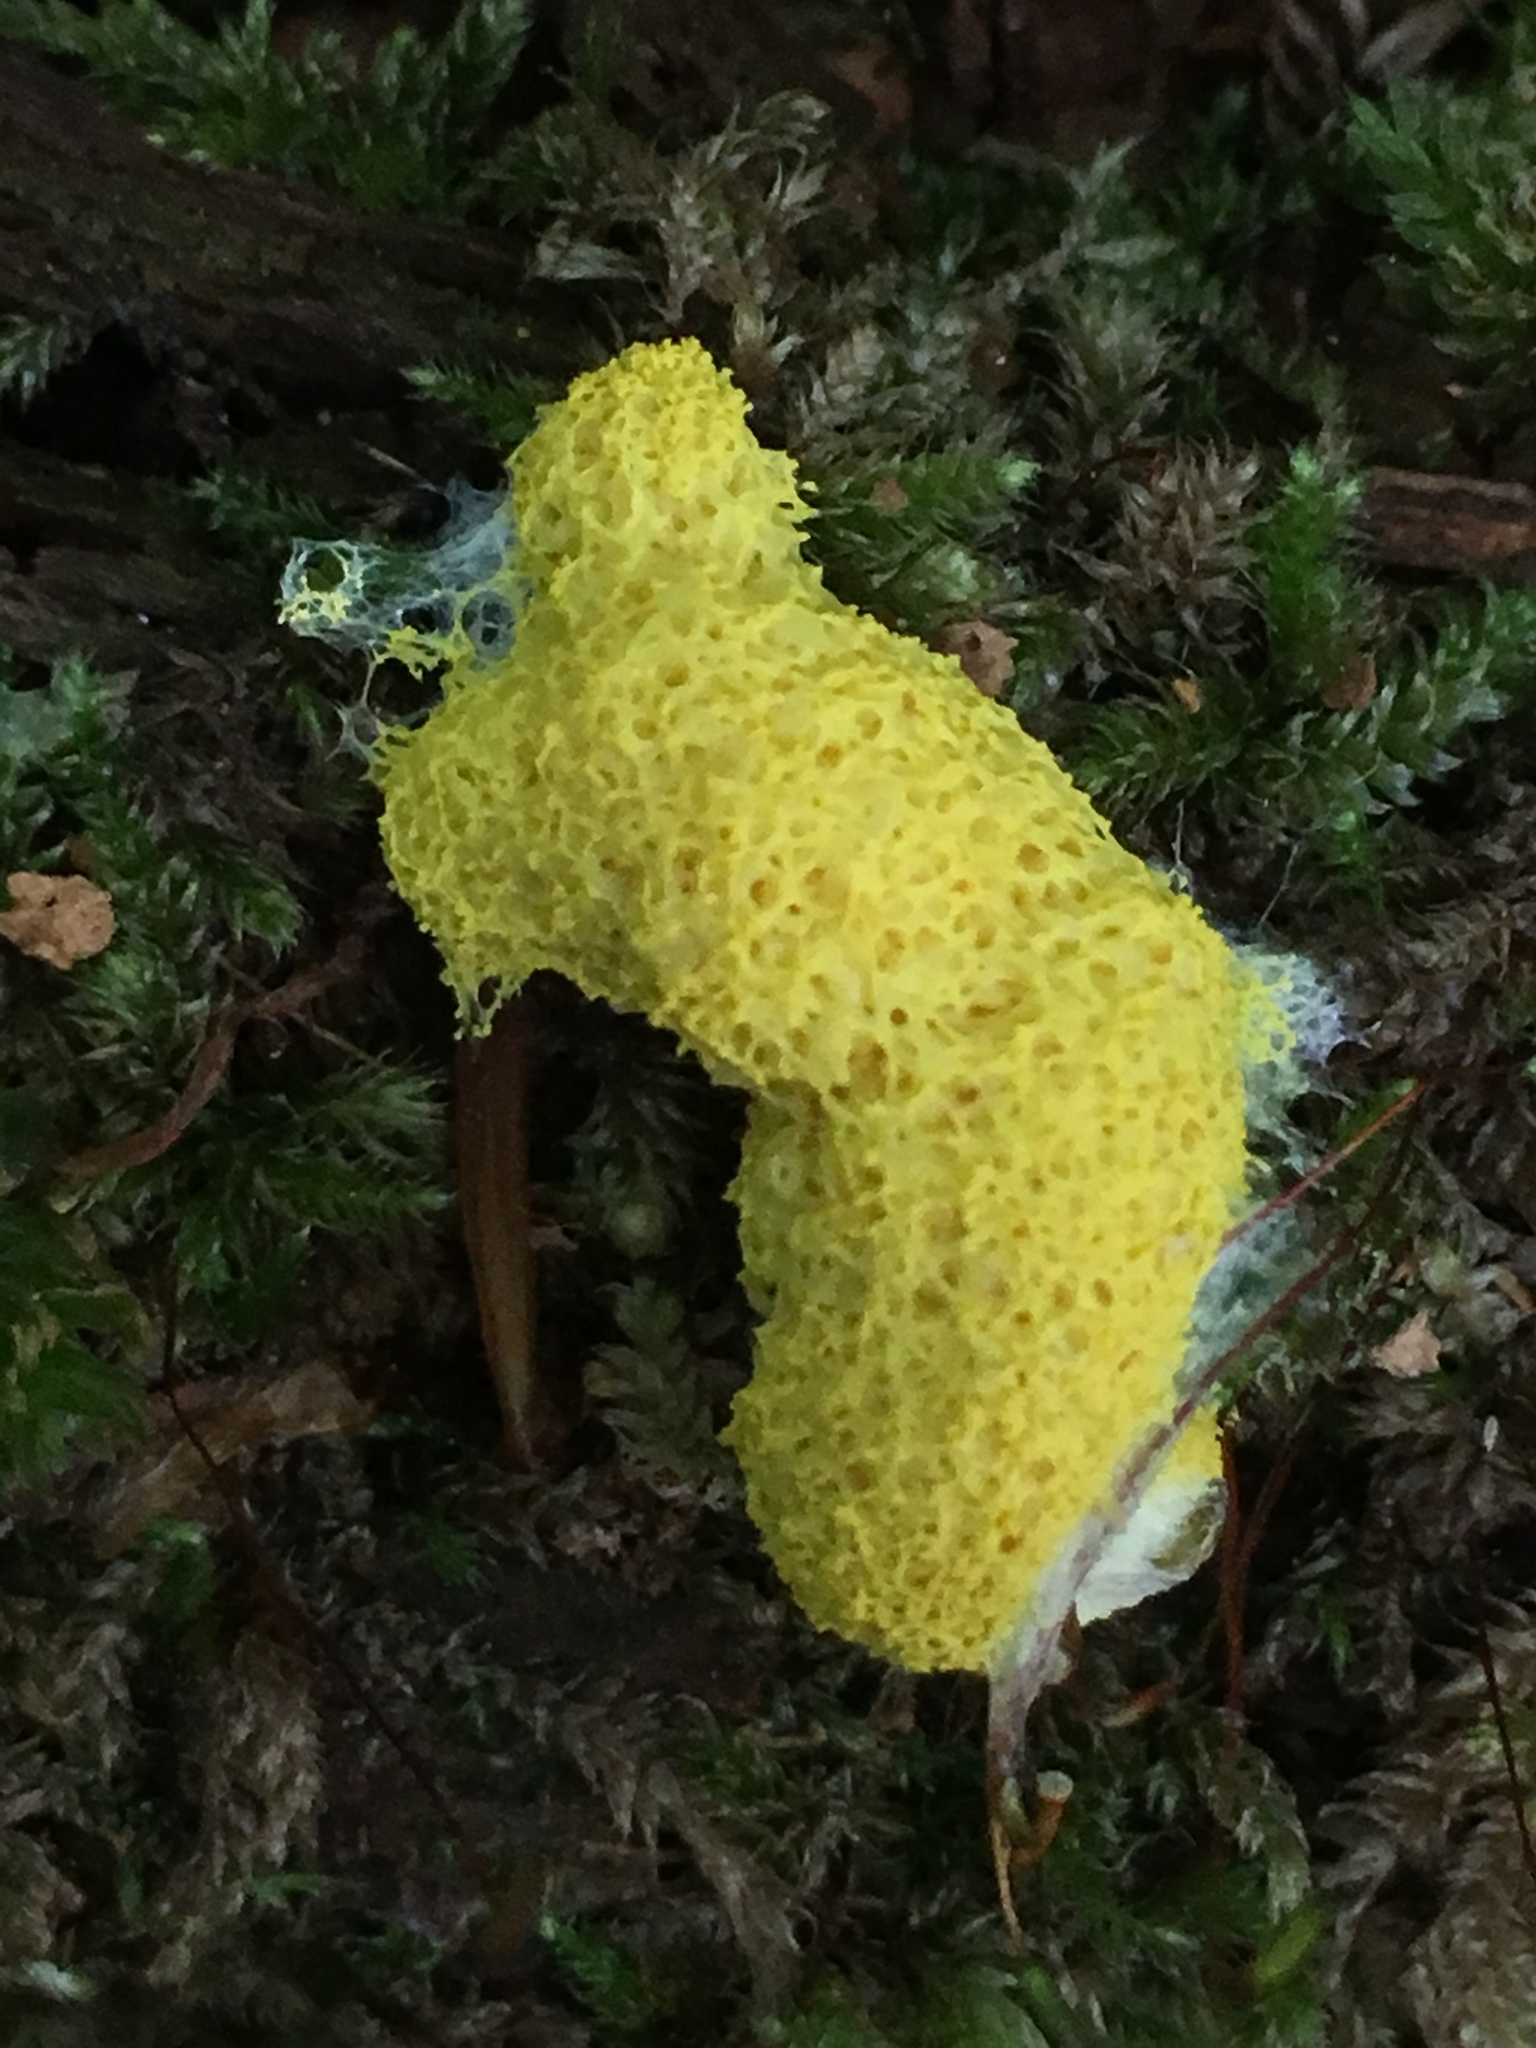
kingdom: Protozoa
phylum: Mycetozoa
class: Myxomycetes
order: Physarales
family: Physaraceae
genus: Fuligo
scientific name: Fuligo septica
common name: Dog vomit slime mold
